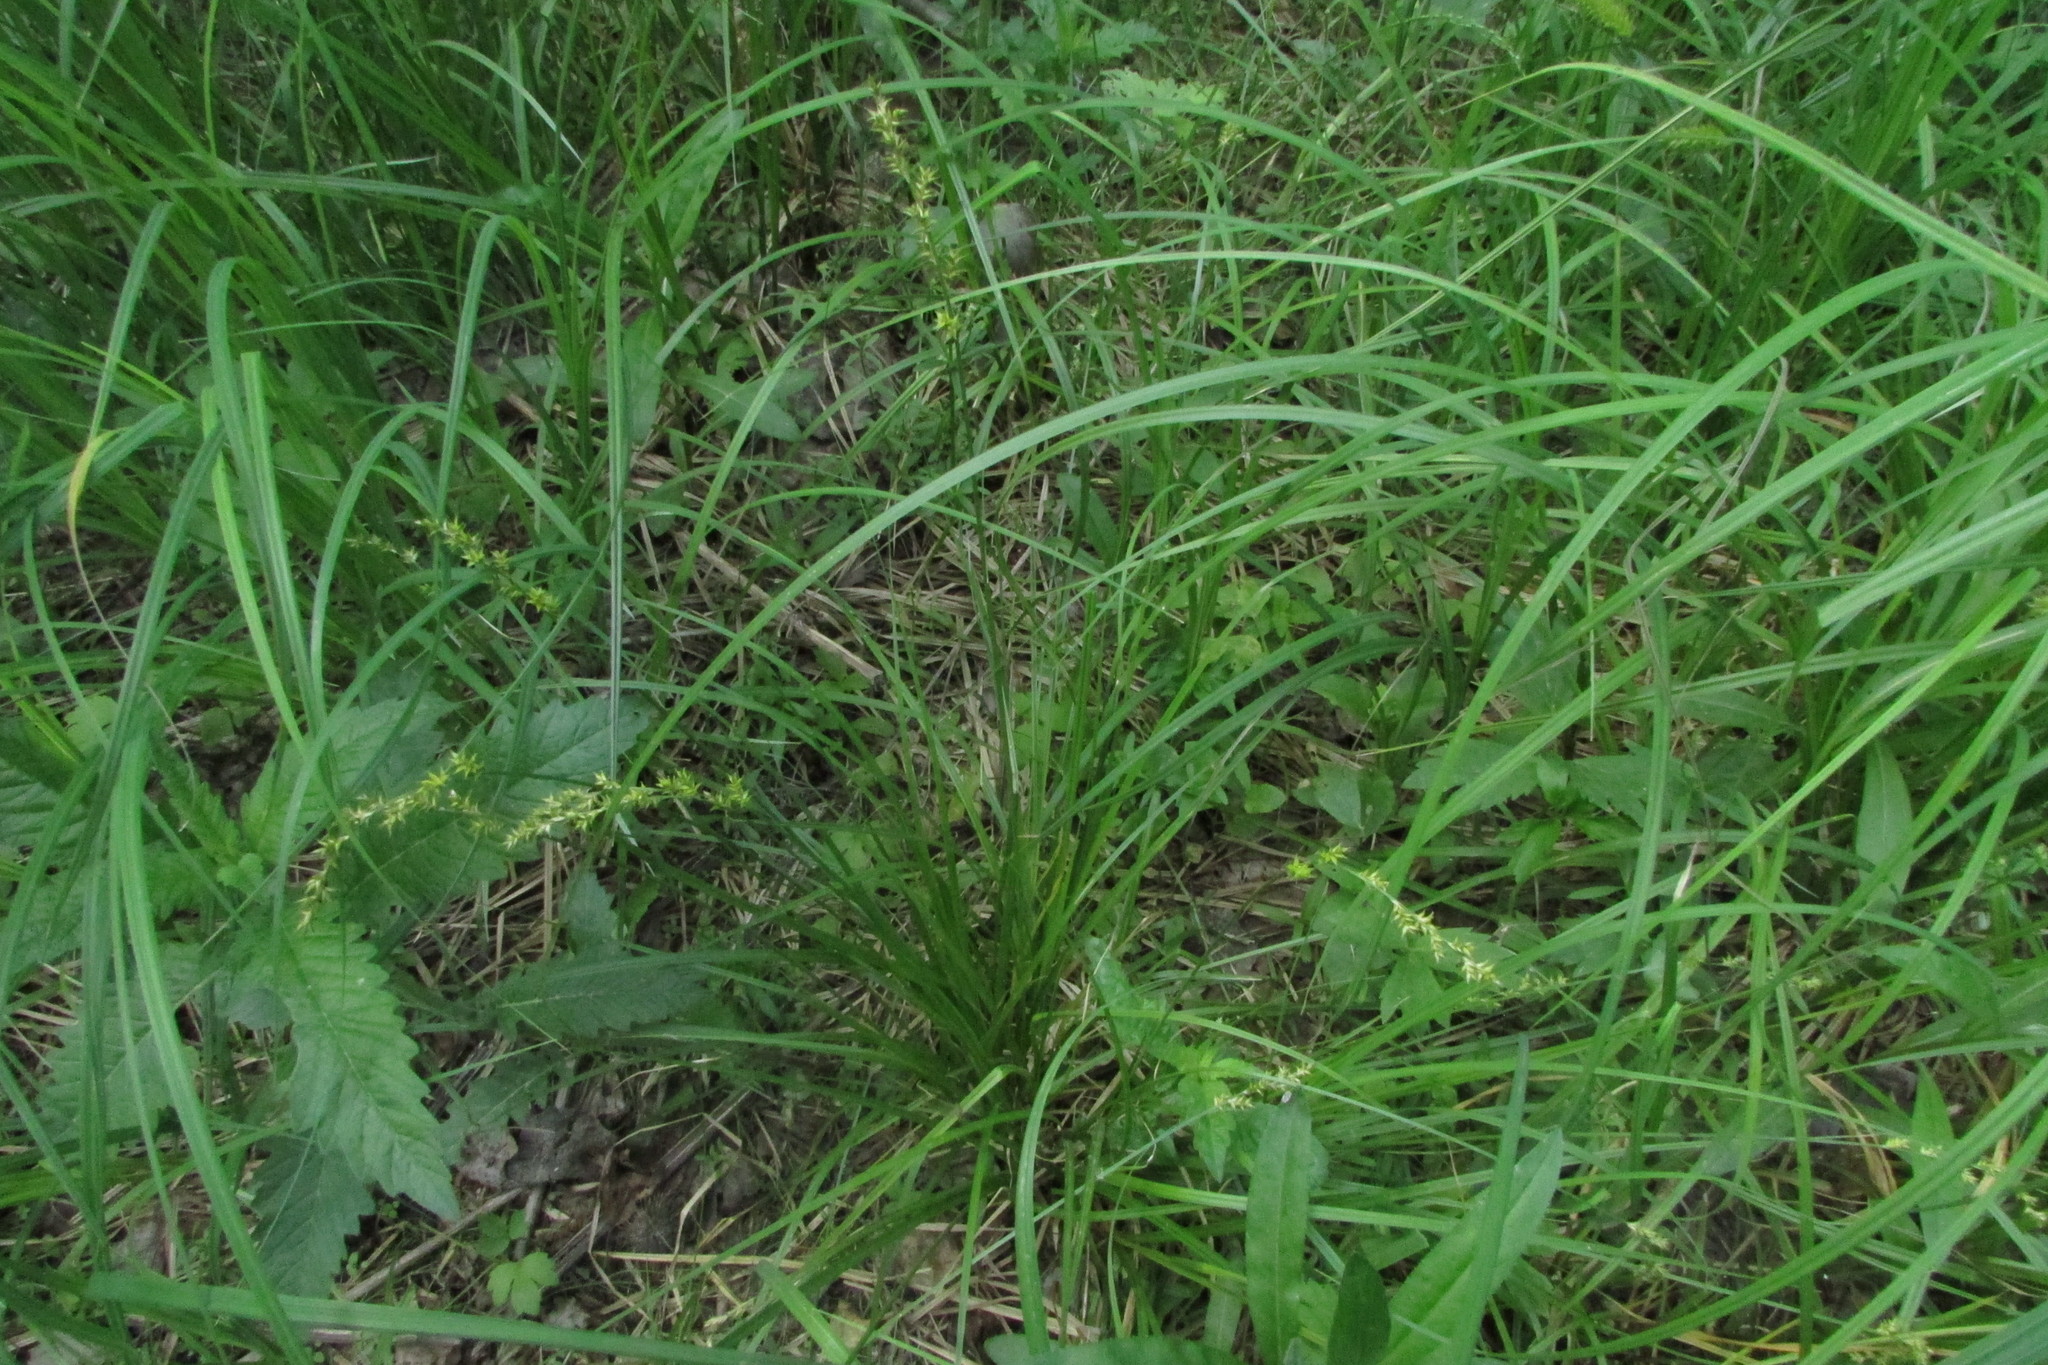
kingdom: Plantae
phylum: Tracheophyta
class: Liliopsida
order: Poales
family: Cyperaceae
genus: Carex
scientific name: Carex elongata
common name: Elongated sedge
